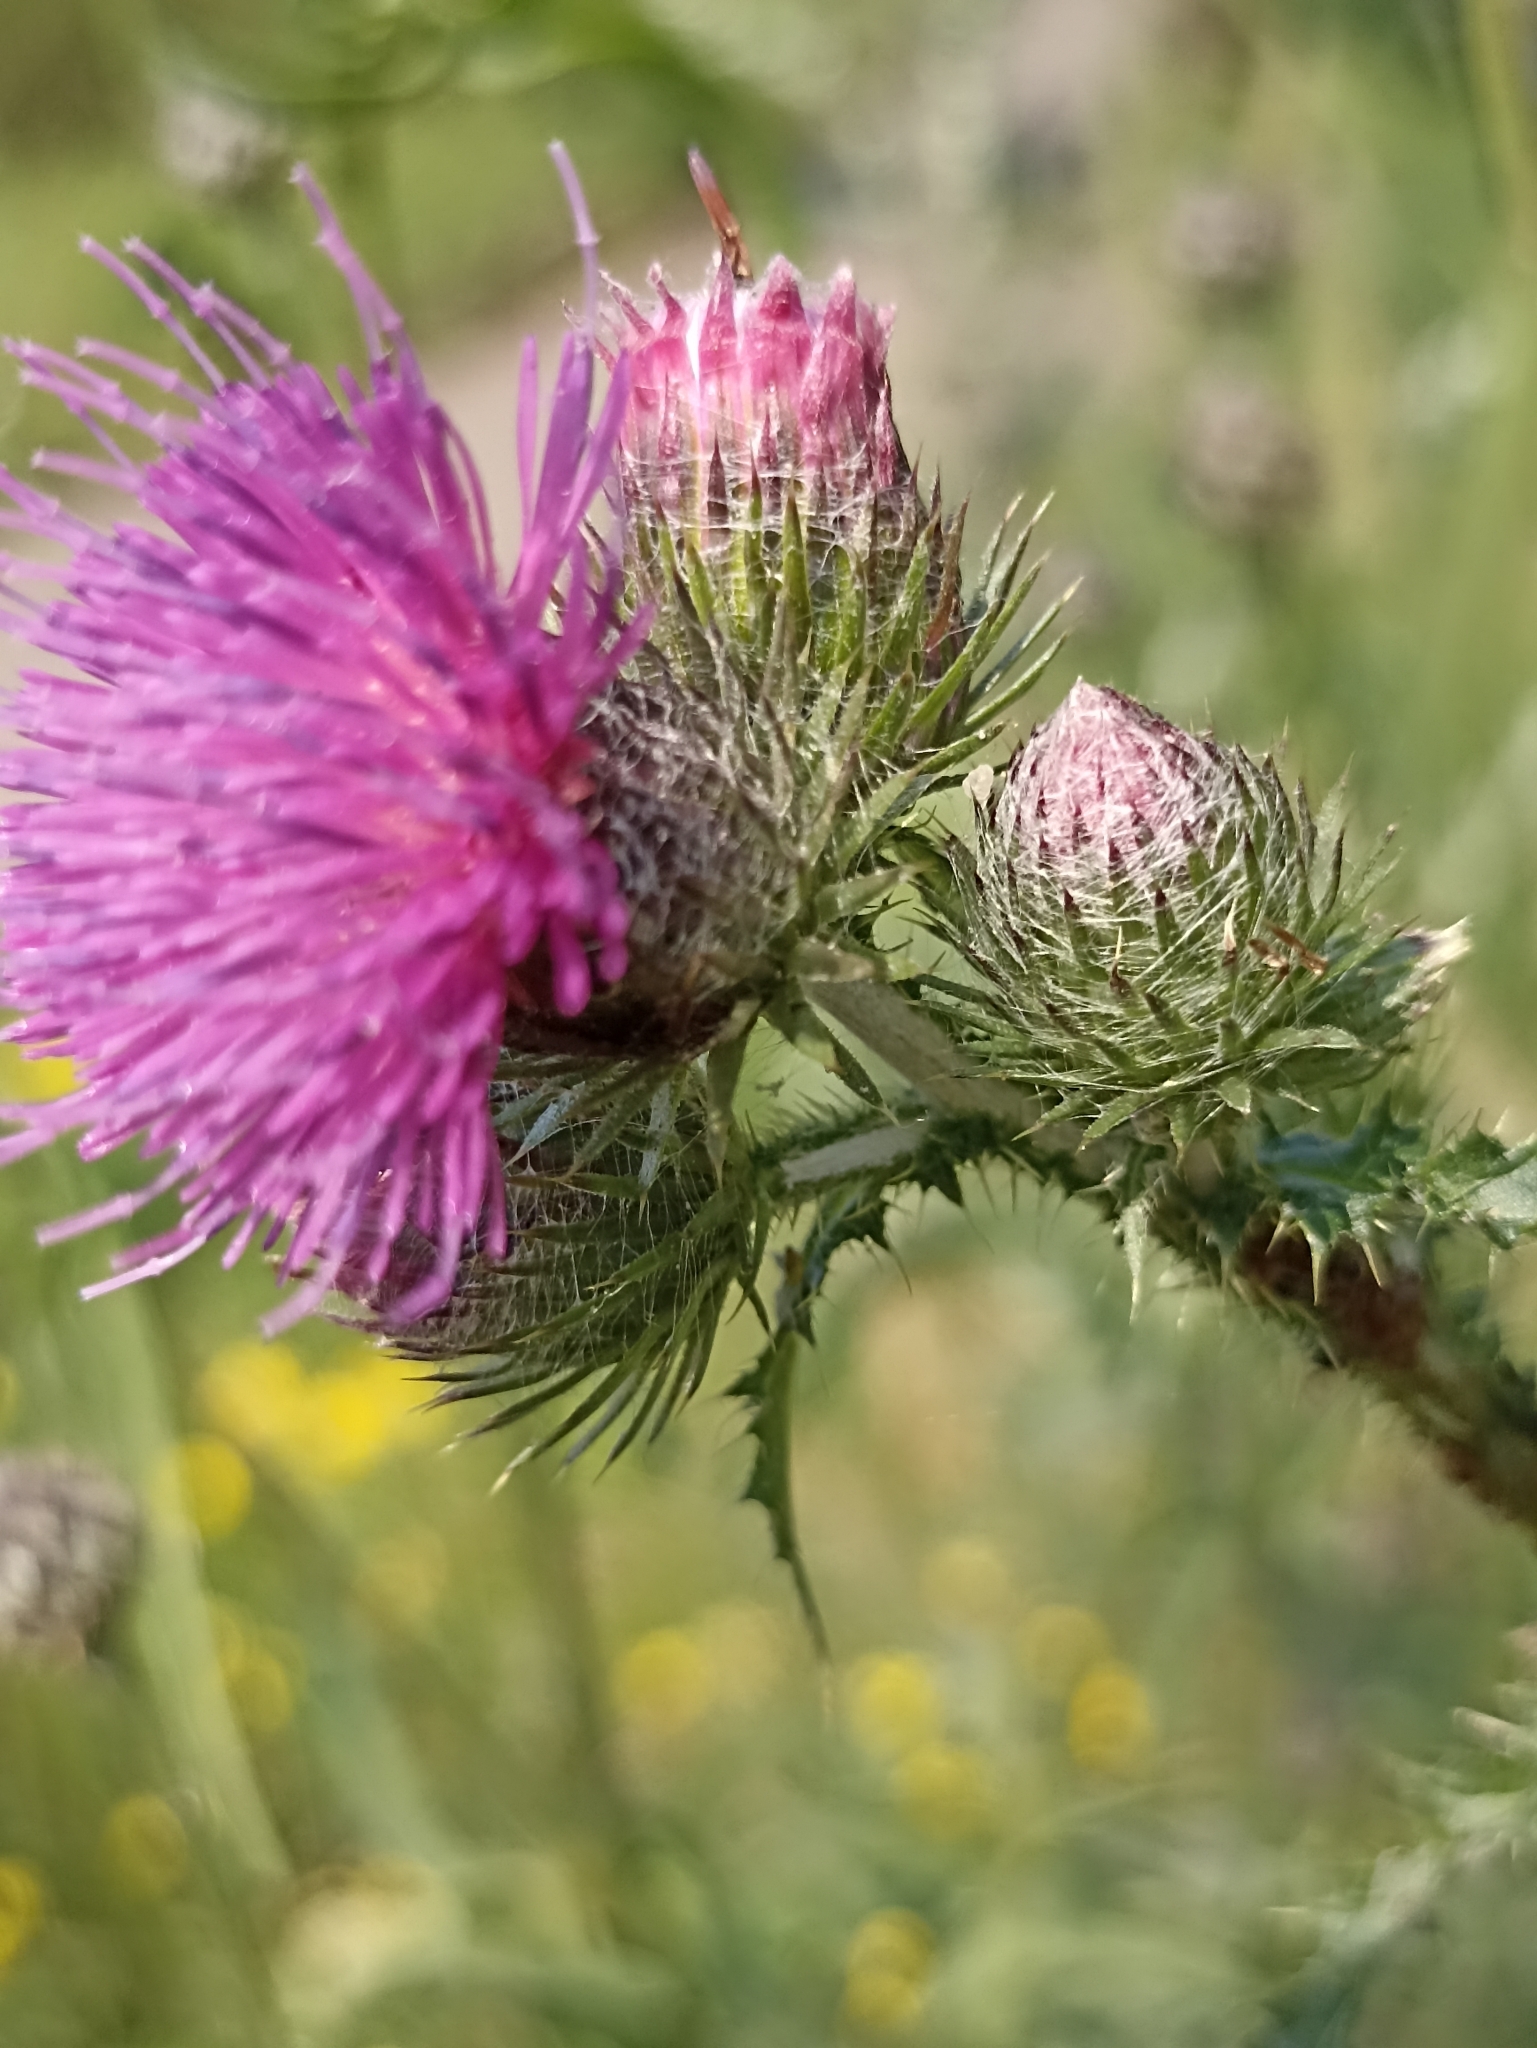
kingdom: Plantae
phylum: Tracheophyta
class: Magnoliopsida
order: Asterales
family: Asteraceae
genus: Carduus
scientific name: Carduus crispus
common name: Welted thistle
